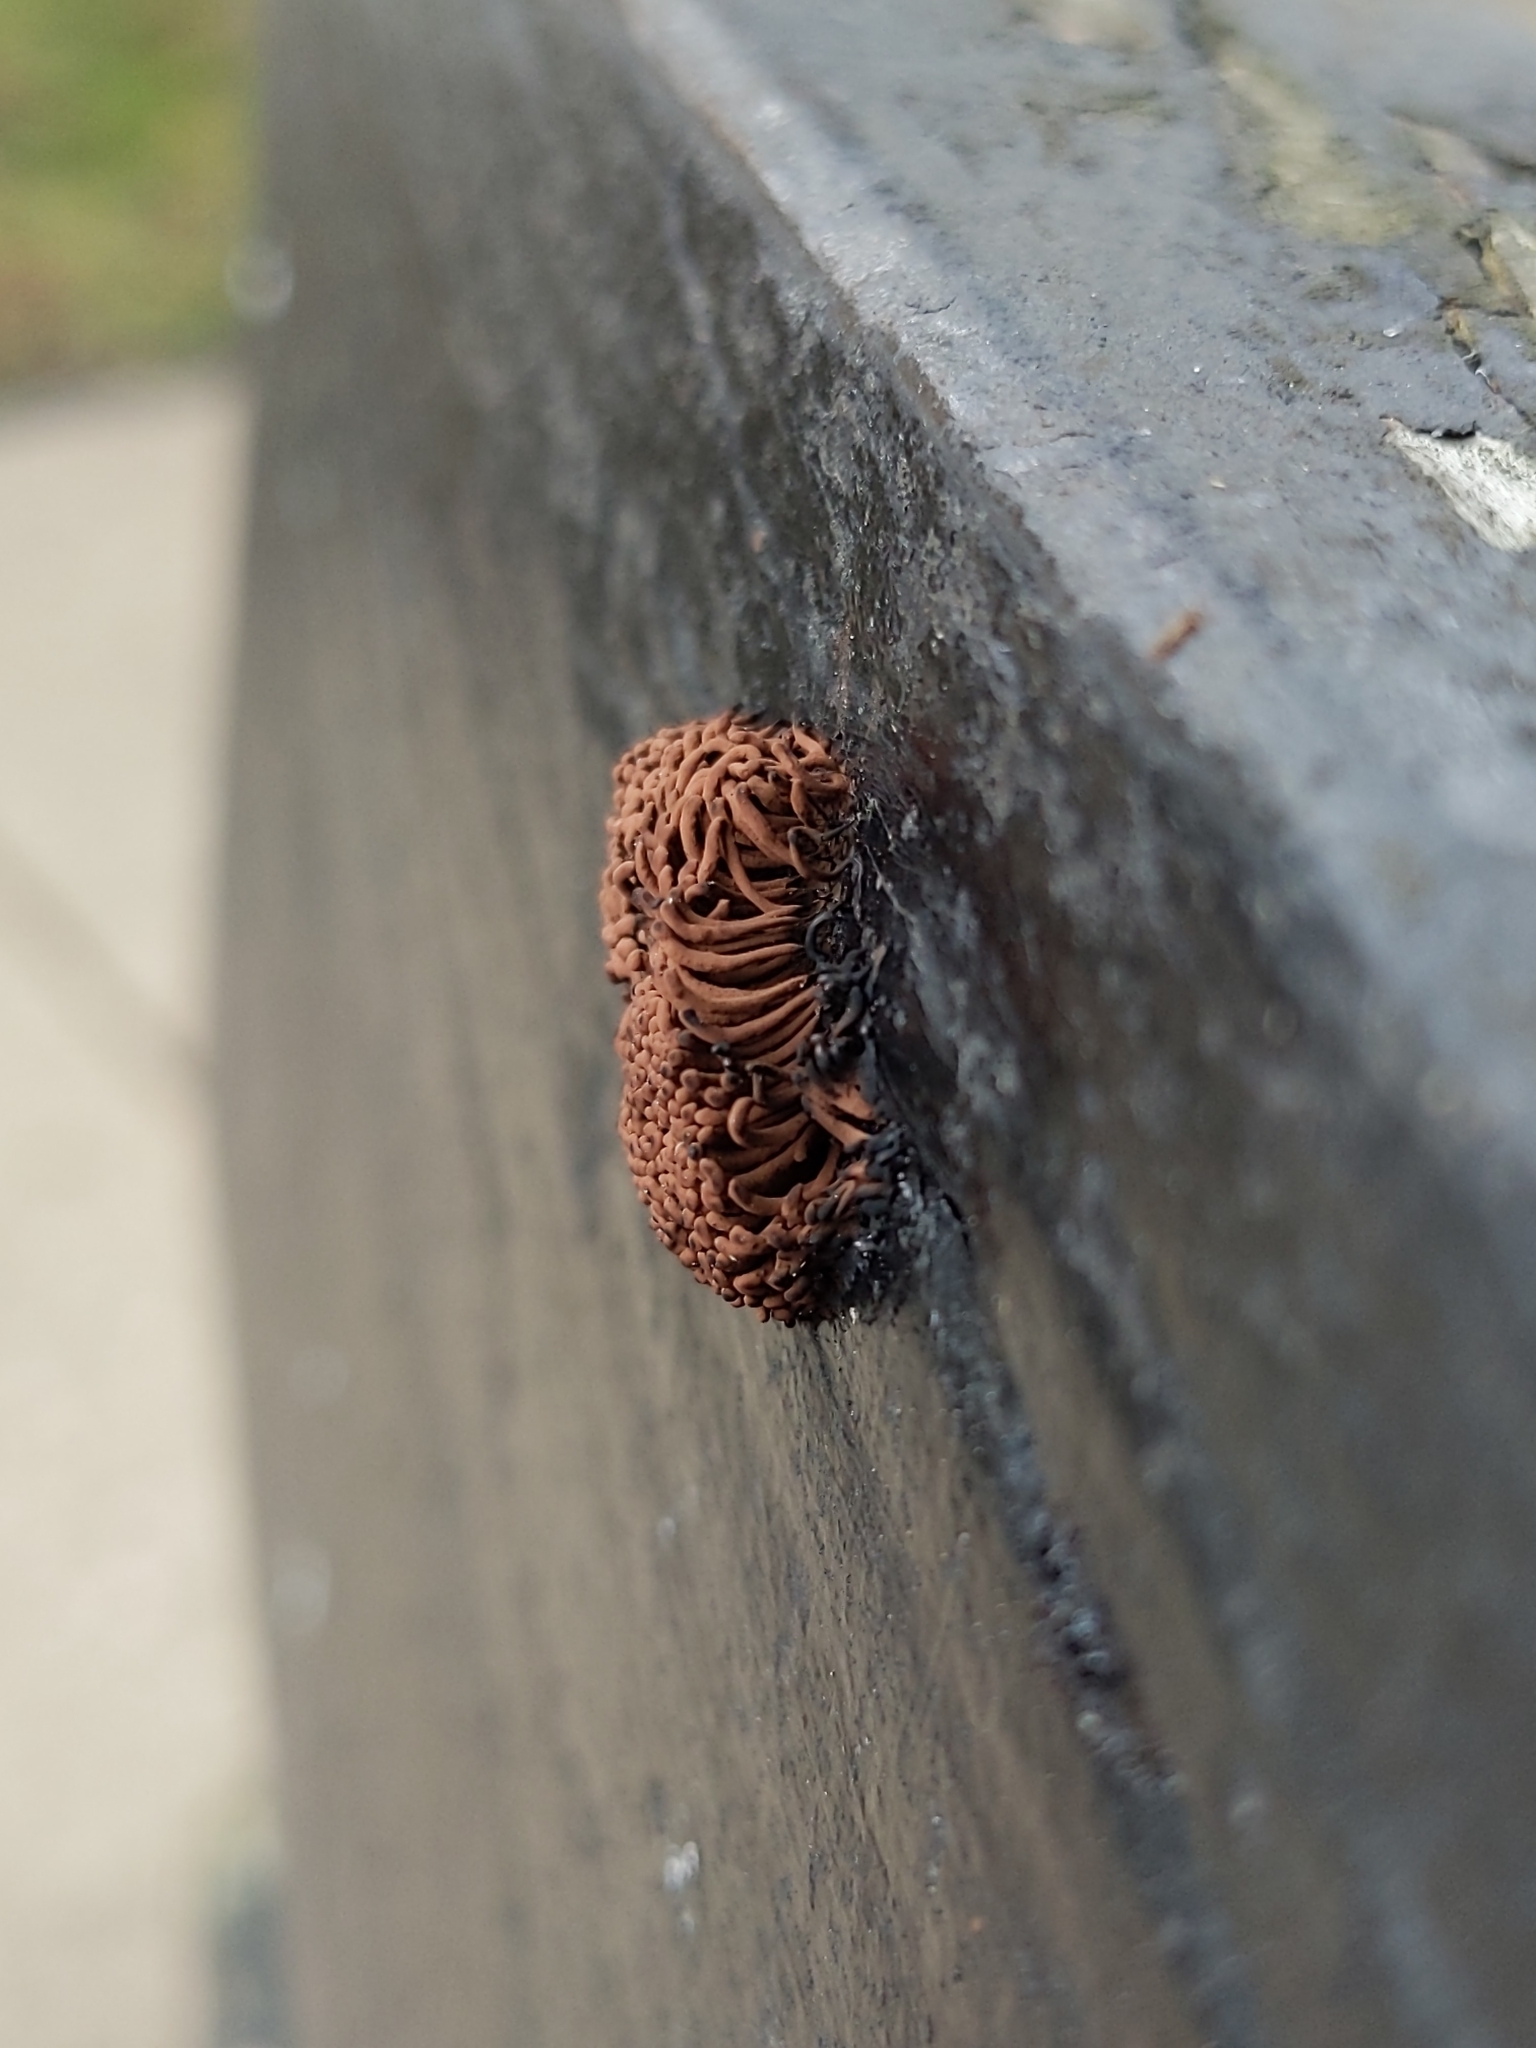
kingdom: Protozoa
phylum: Mycetozoa
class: Myxomycetes
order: Stemonitidales
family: Stemonitidaceae
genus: Stemonitis
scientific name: Stemonitis splendens
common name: Chocolate tube slime
